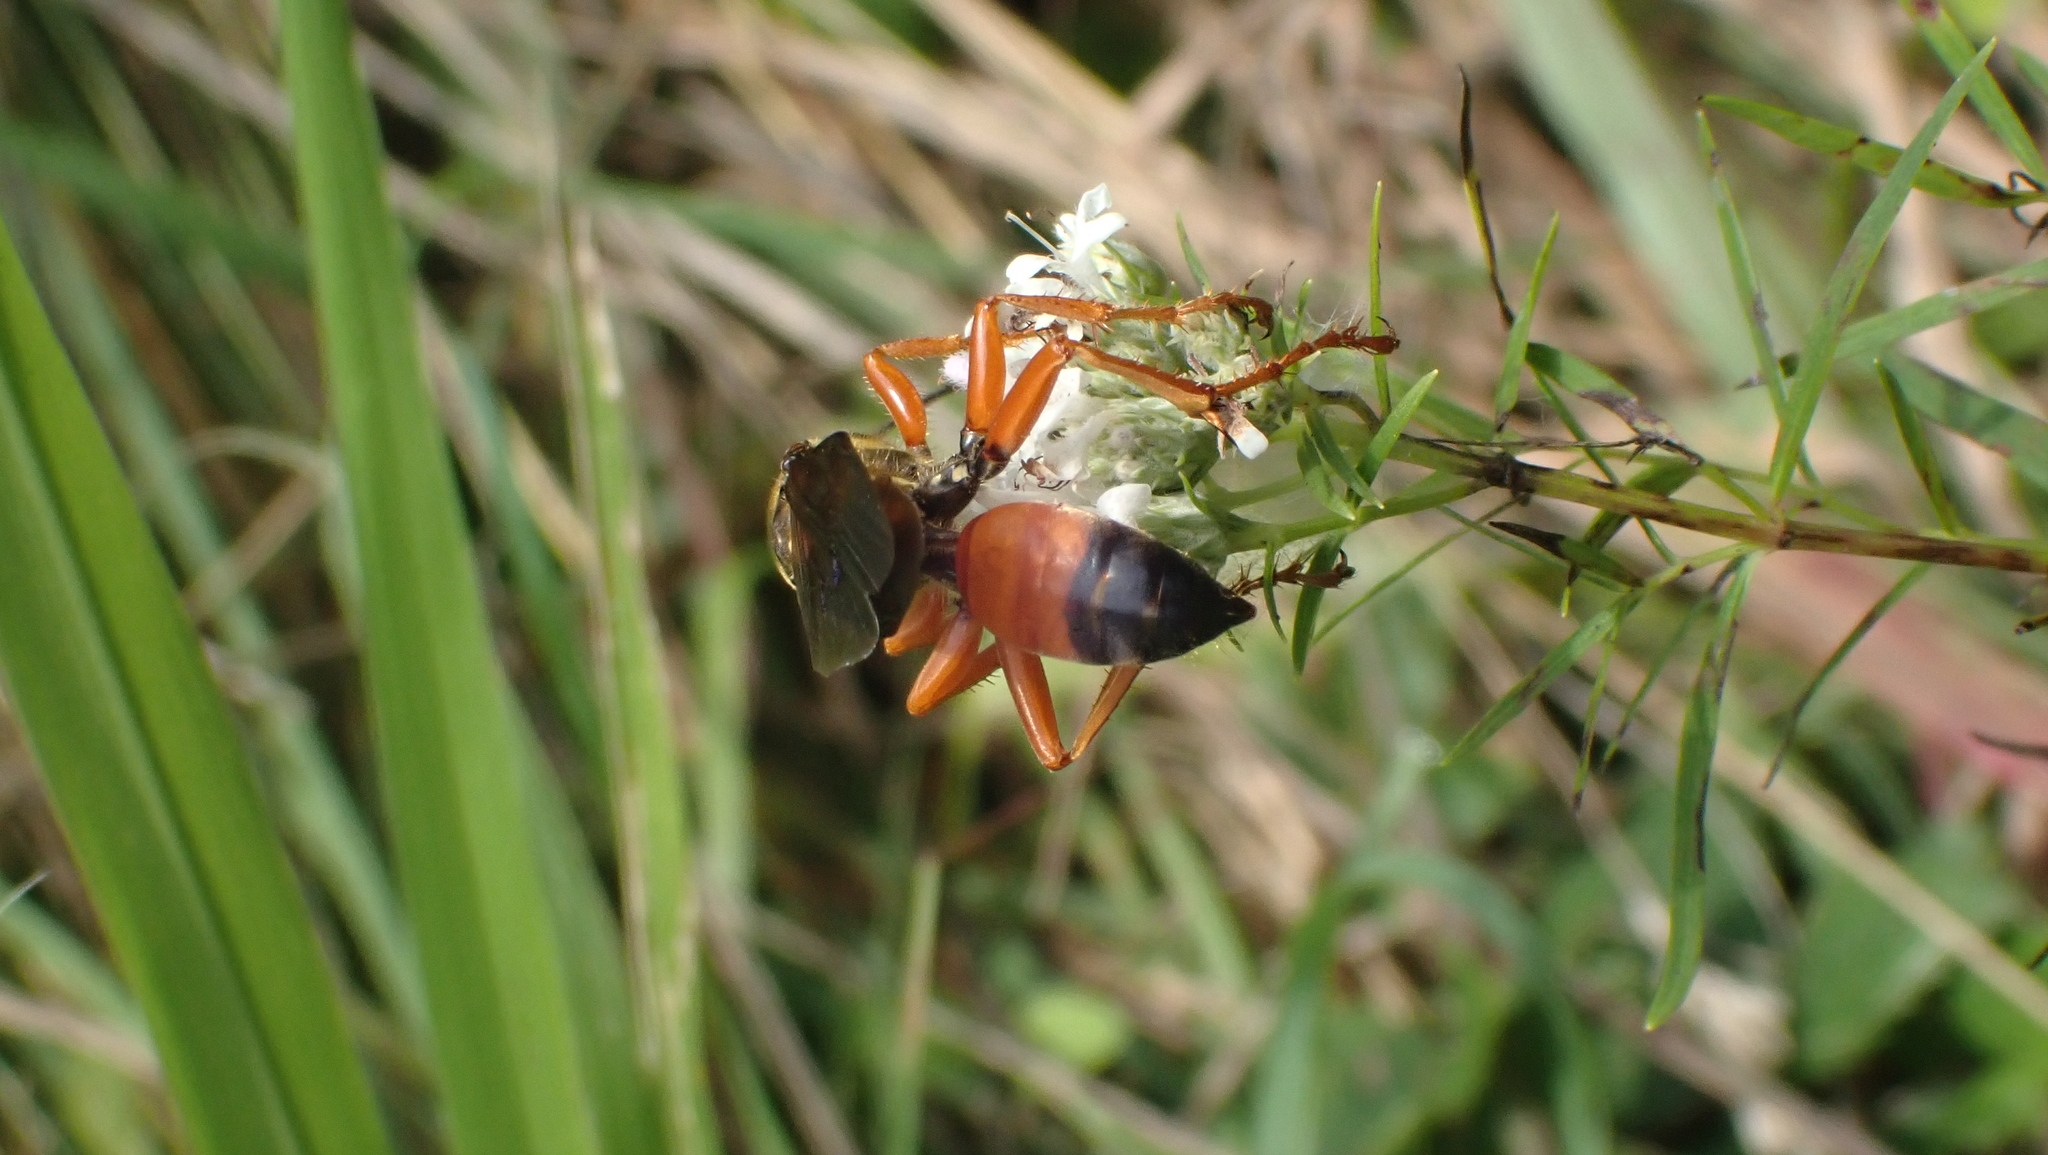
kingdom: Animalia
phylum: Arthropoda
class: Insecta
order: Hymenoptera
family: Sphecidae
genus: Sphex
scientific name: Sphex ichneumoneus
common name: Great golden digger wasp
